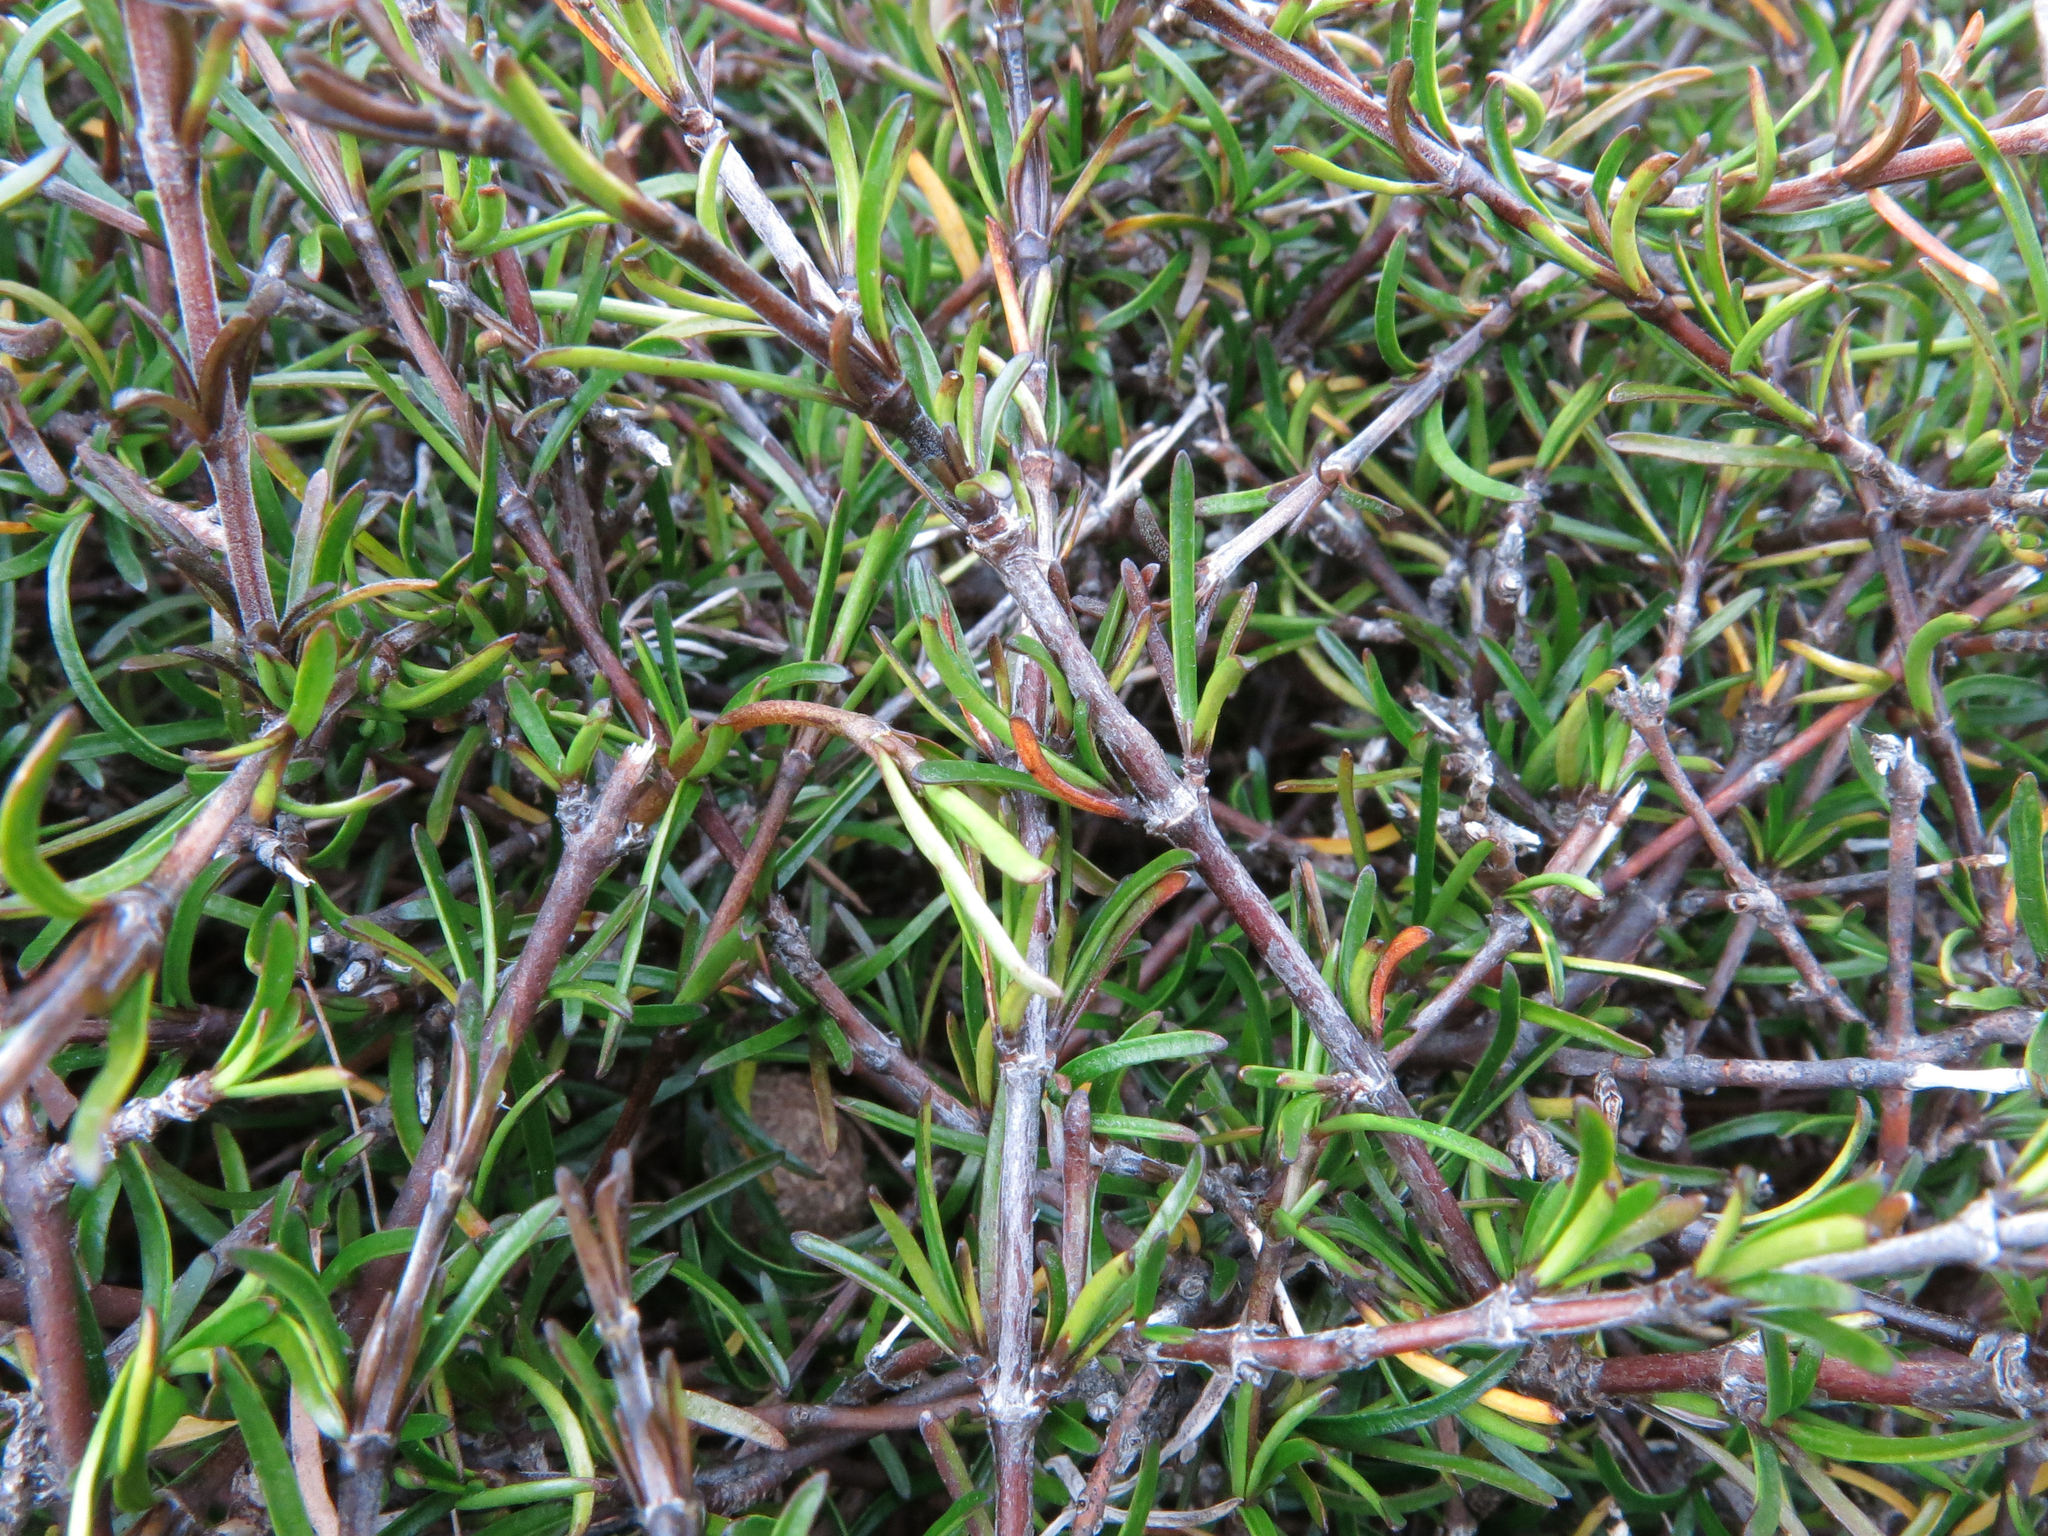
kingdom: Plantae
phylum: Tracheophyta
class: Magnoliopsida
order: Gentianales
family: Rubiaceae
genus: Coprosma
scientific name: Coprosma elatirioides
